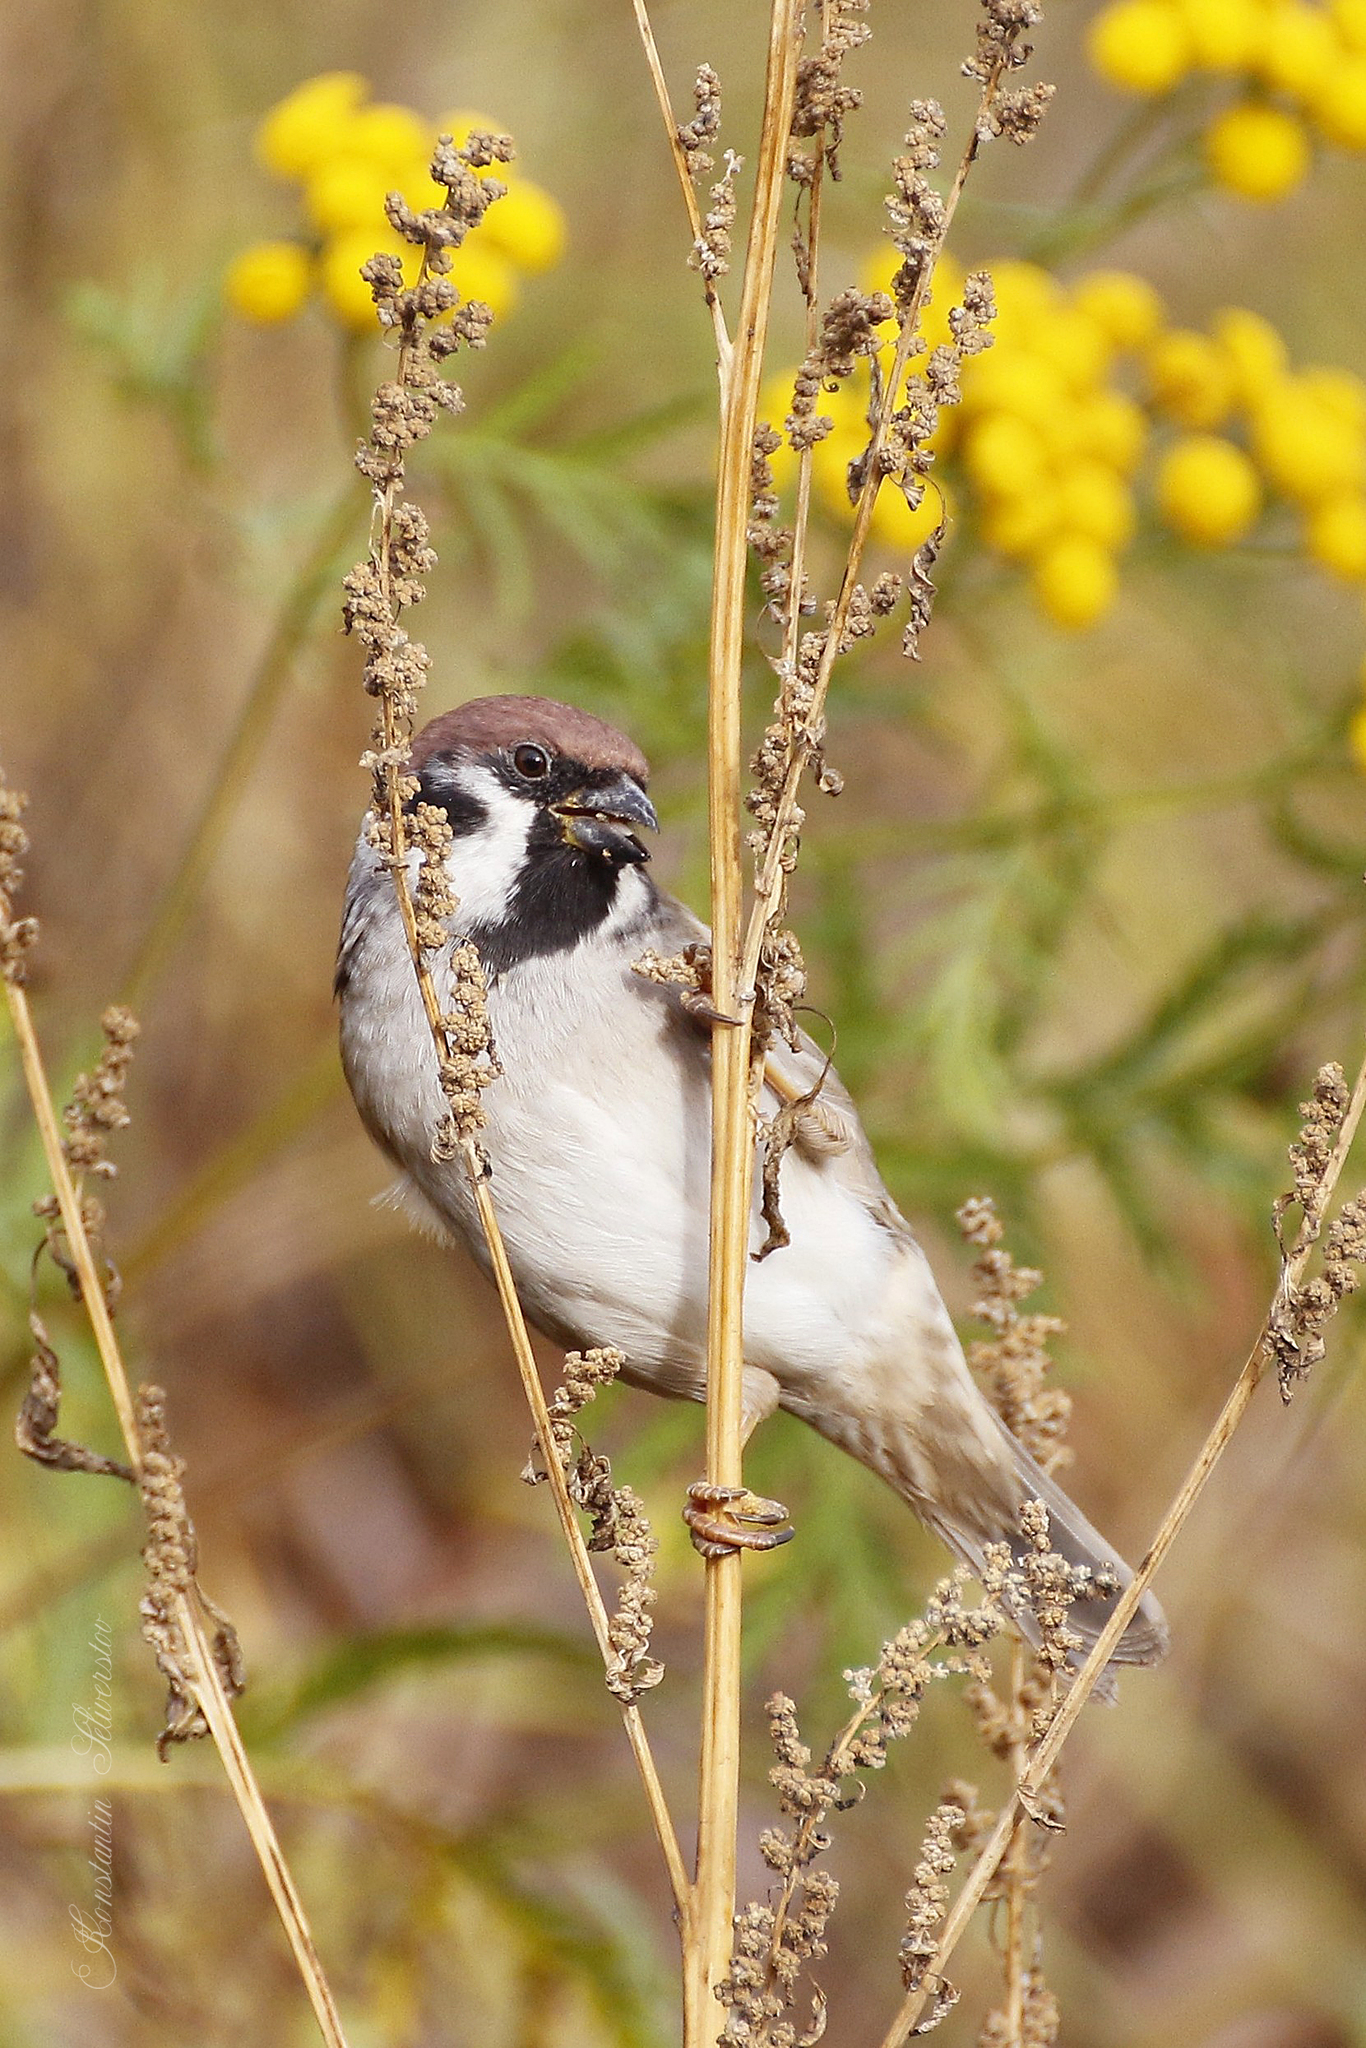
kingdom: Animalia
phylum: Chordata
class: Aves
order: Passeriformes
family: Passeridae
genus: Passer
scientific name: Passer montanus
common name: Eurasian tree sparrow
